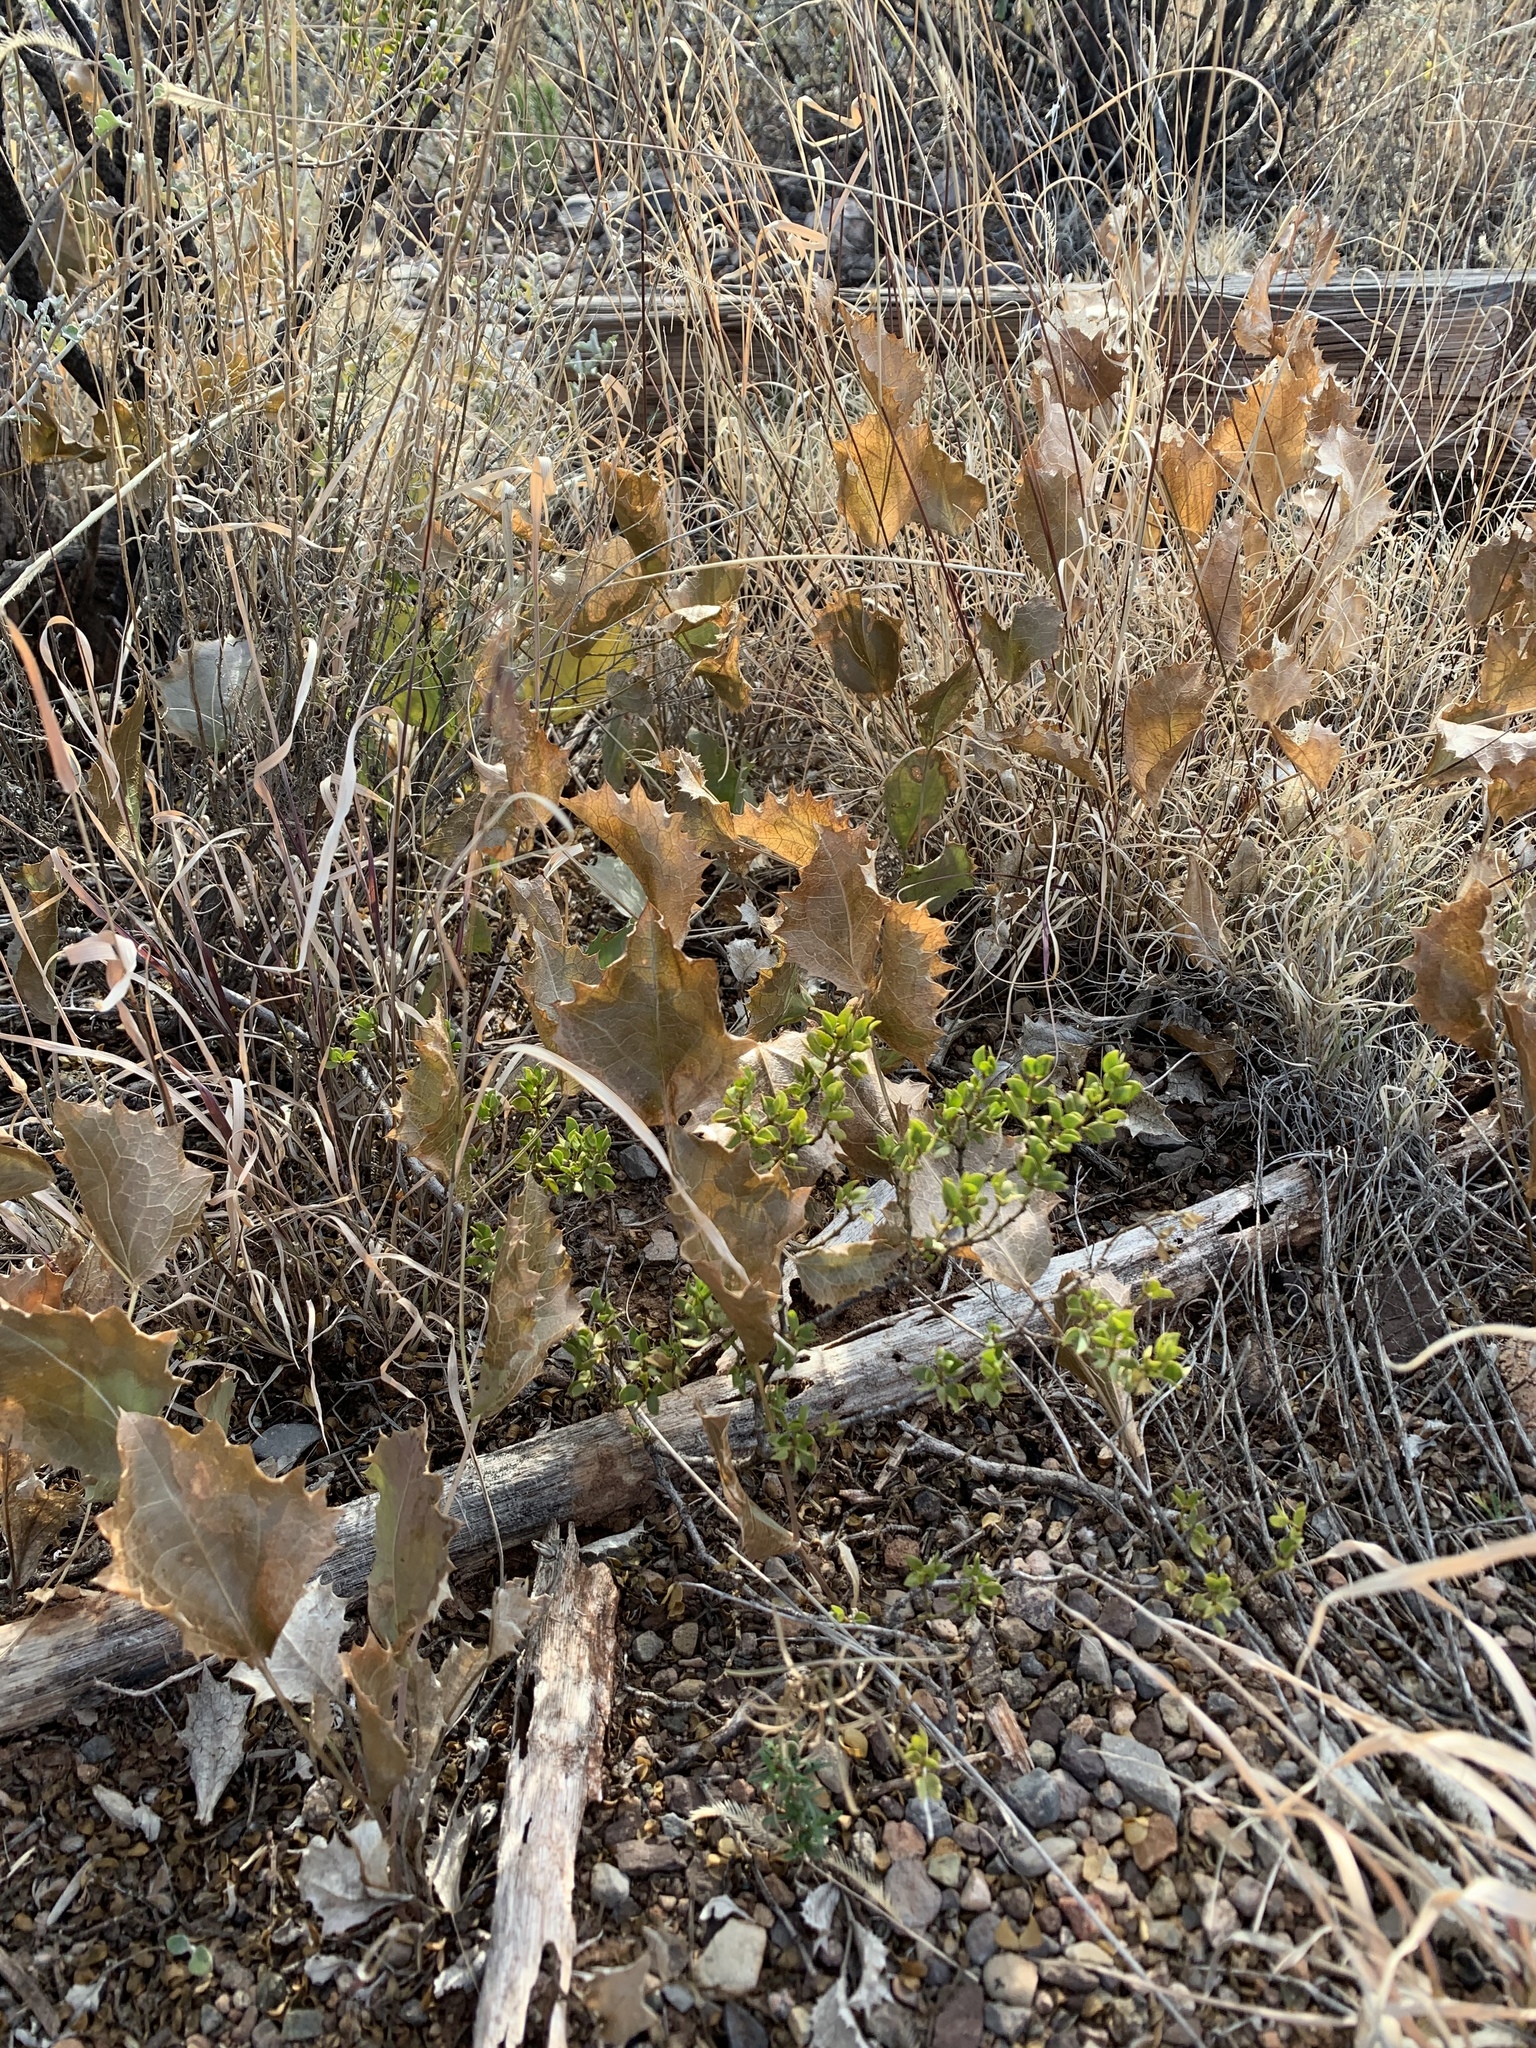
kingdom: Plantae
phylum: Tracheophyta
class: Magnoliopsida
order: Asterales
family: Asteraceae
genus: Acourtia
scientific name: Acourtia nana
